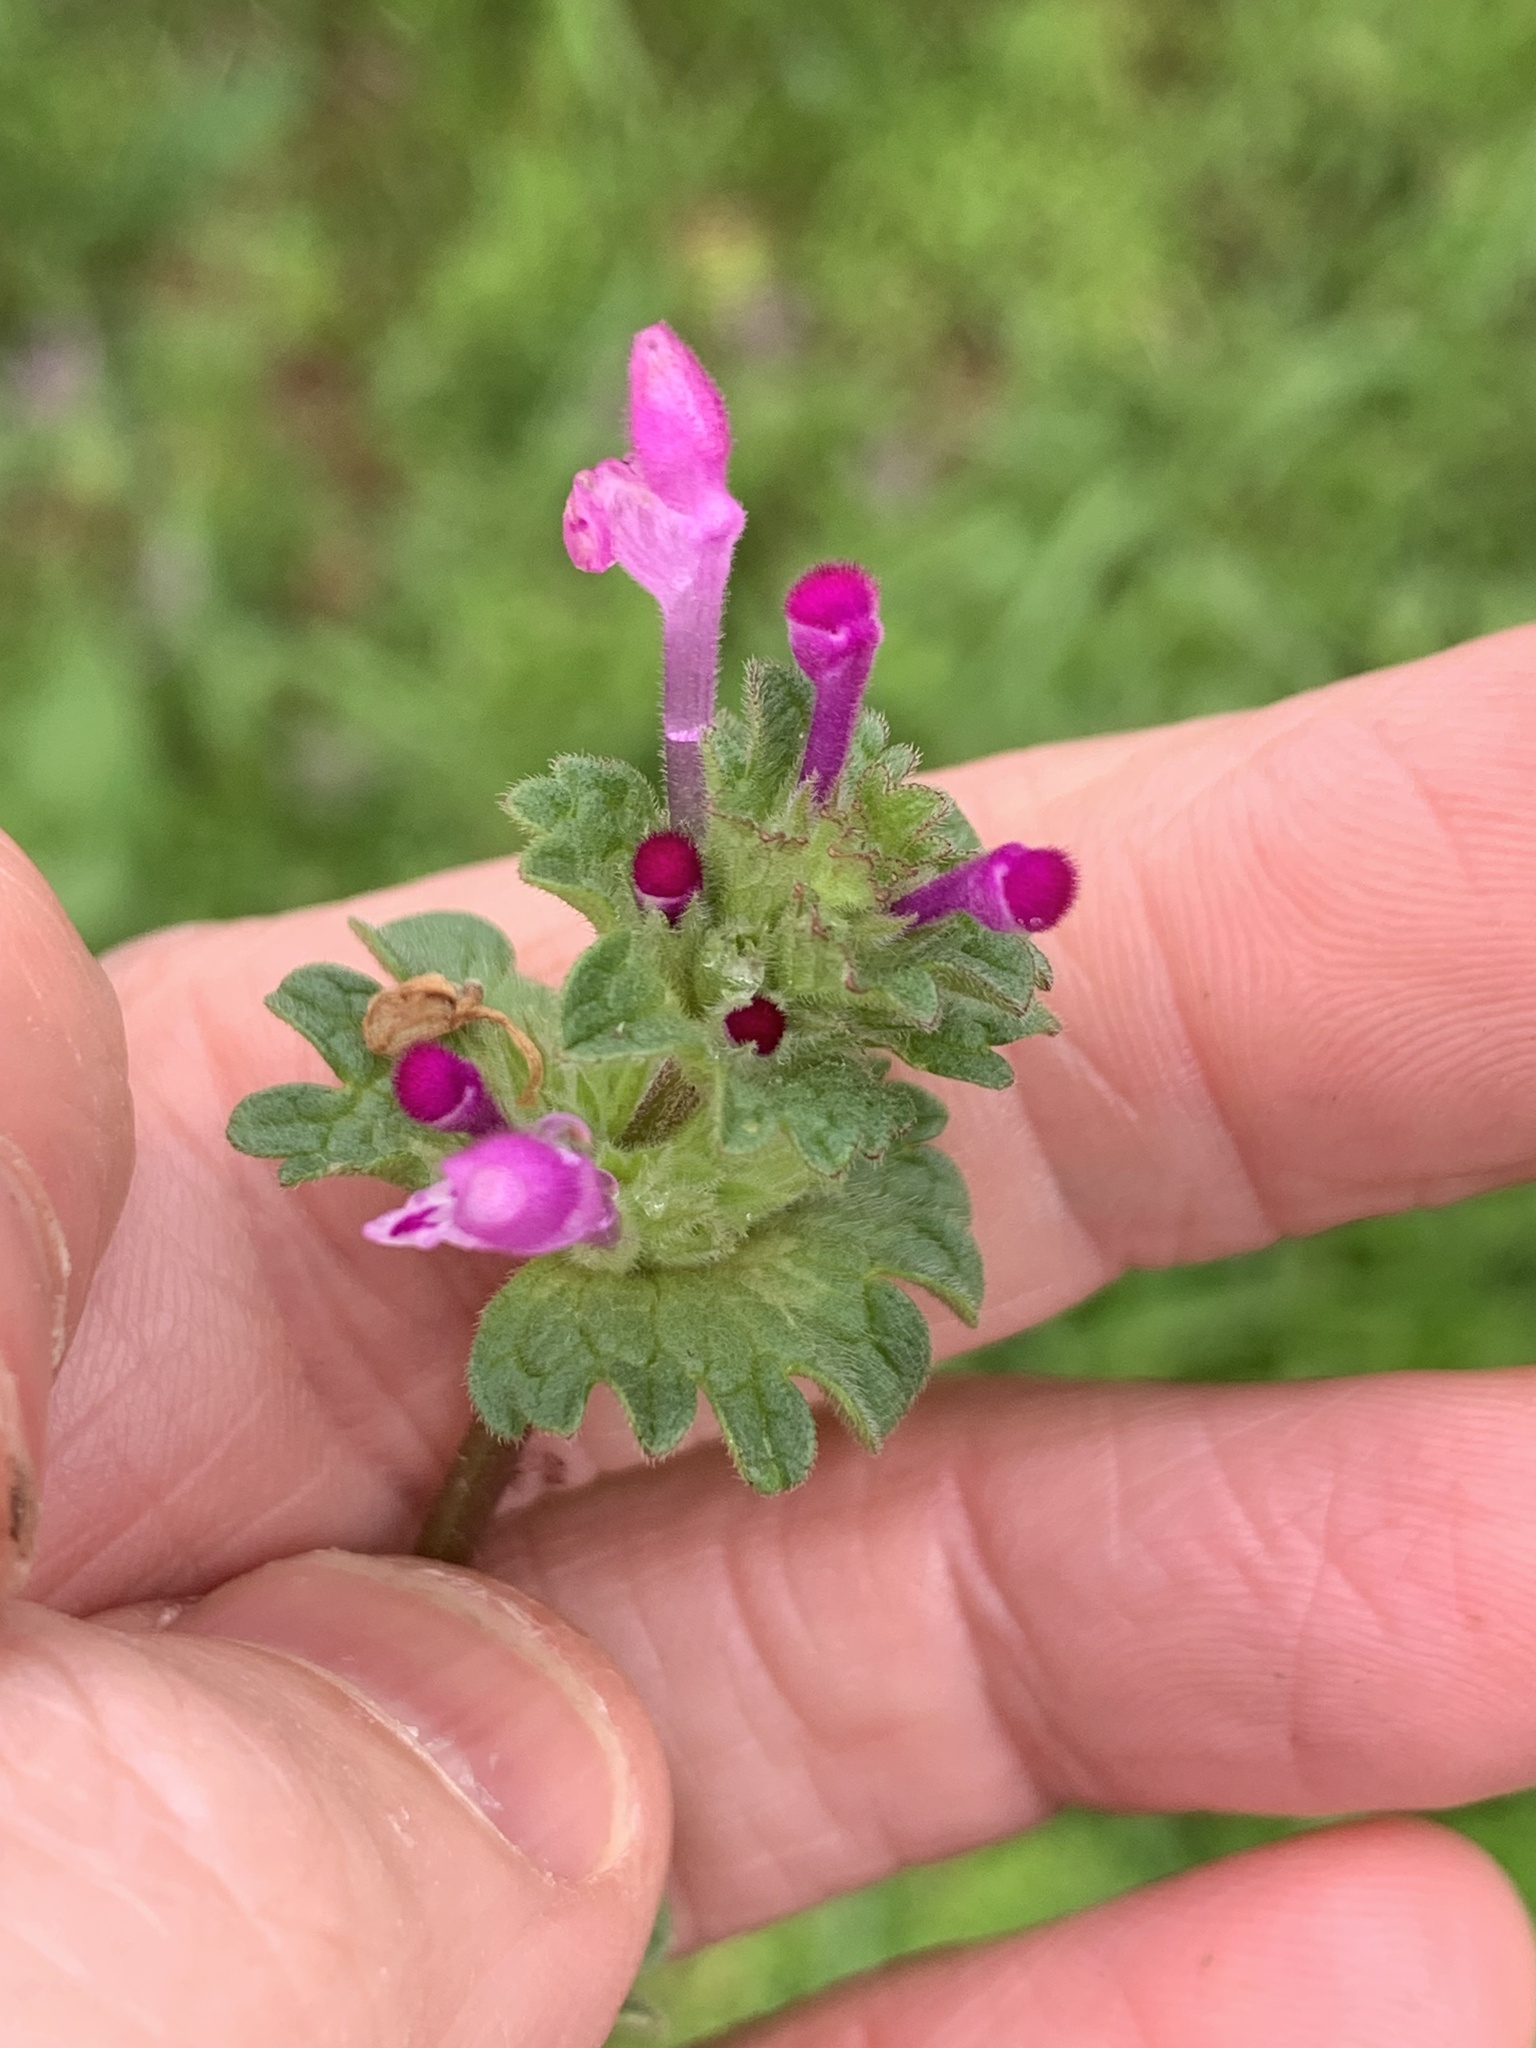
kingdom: Plantae
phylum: Tracheophyta
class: Magnoliopsida
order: Lamiales
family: Lamiaceae
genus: Lamium
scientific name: Lamium amplexicaule
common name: Henbit dead-nettle
